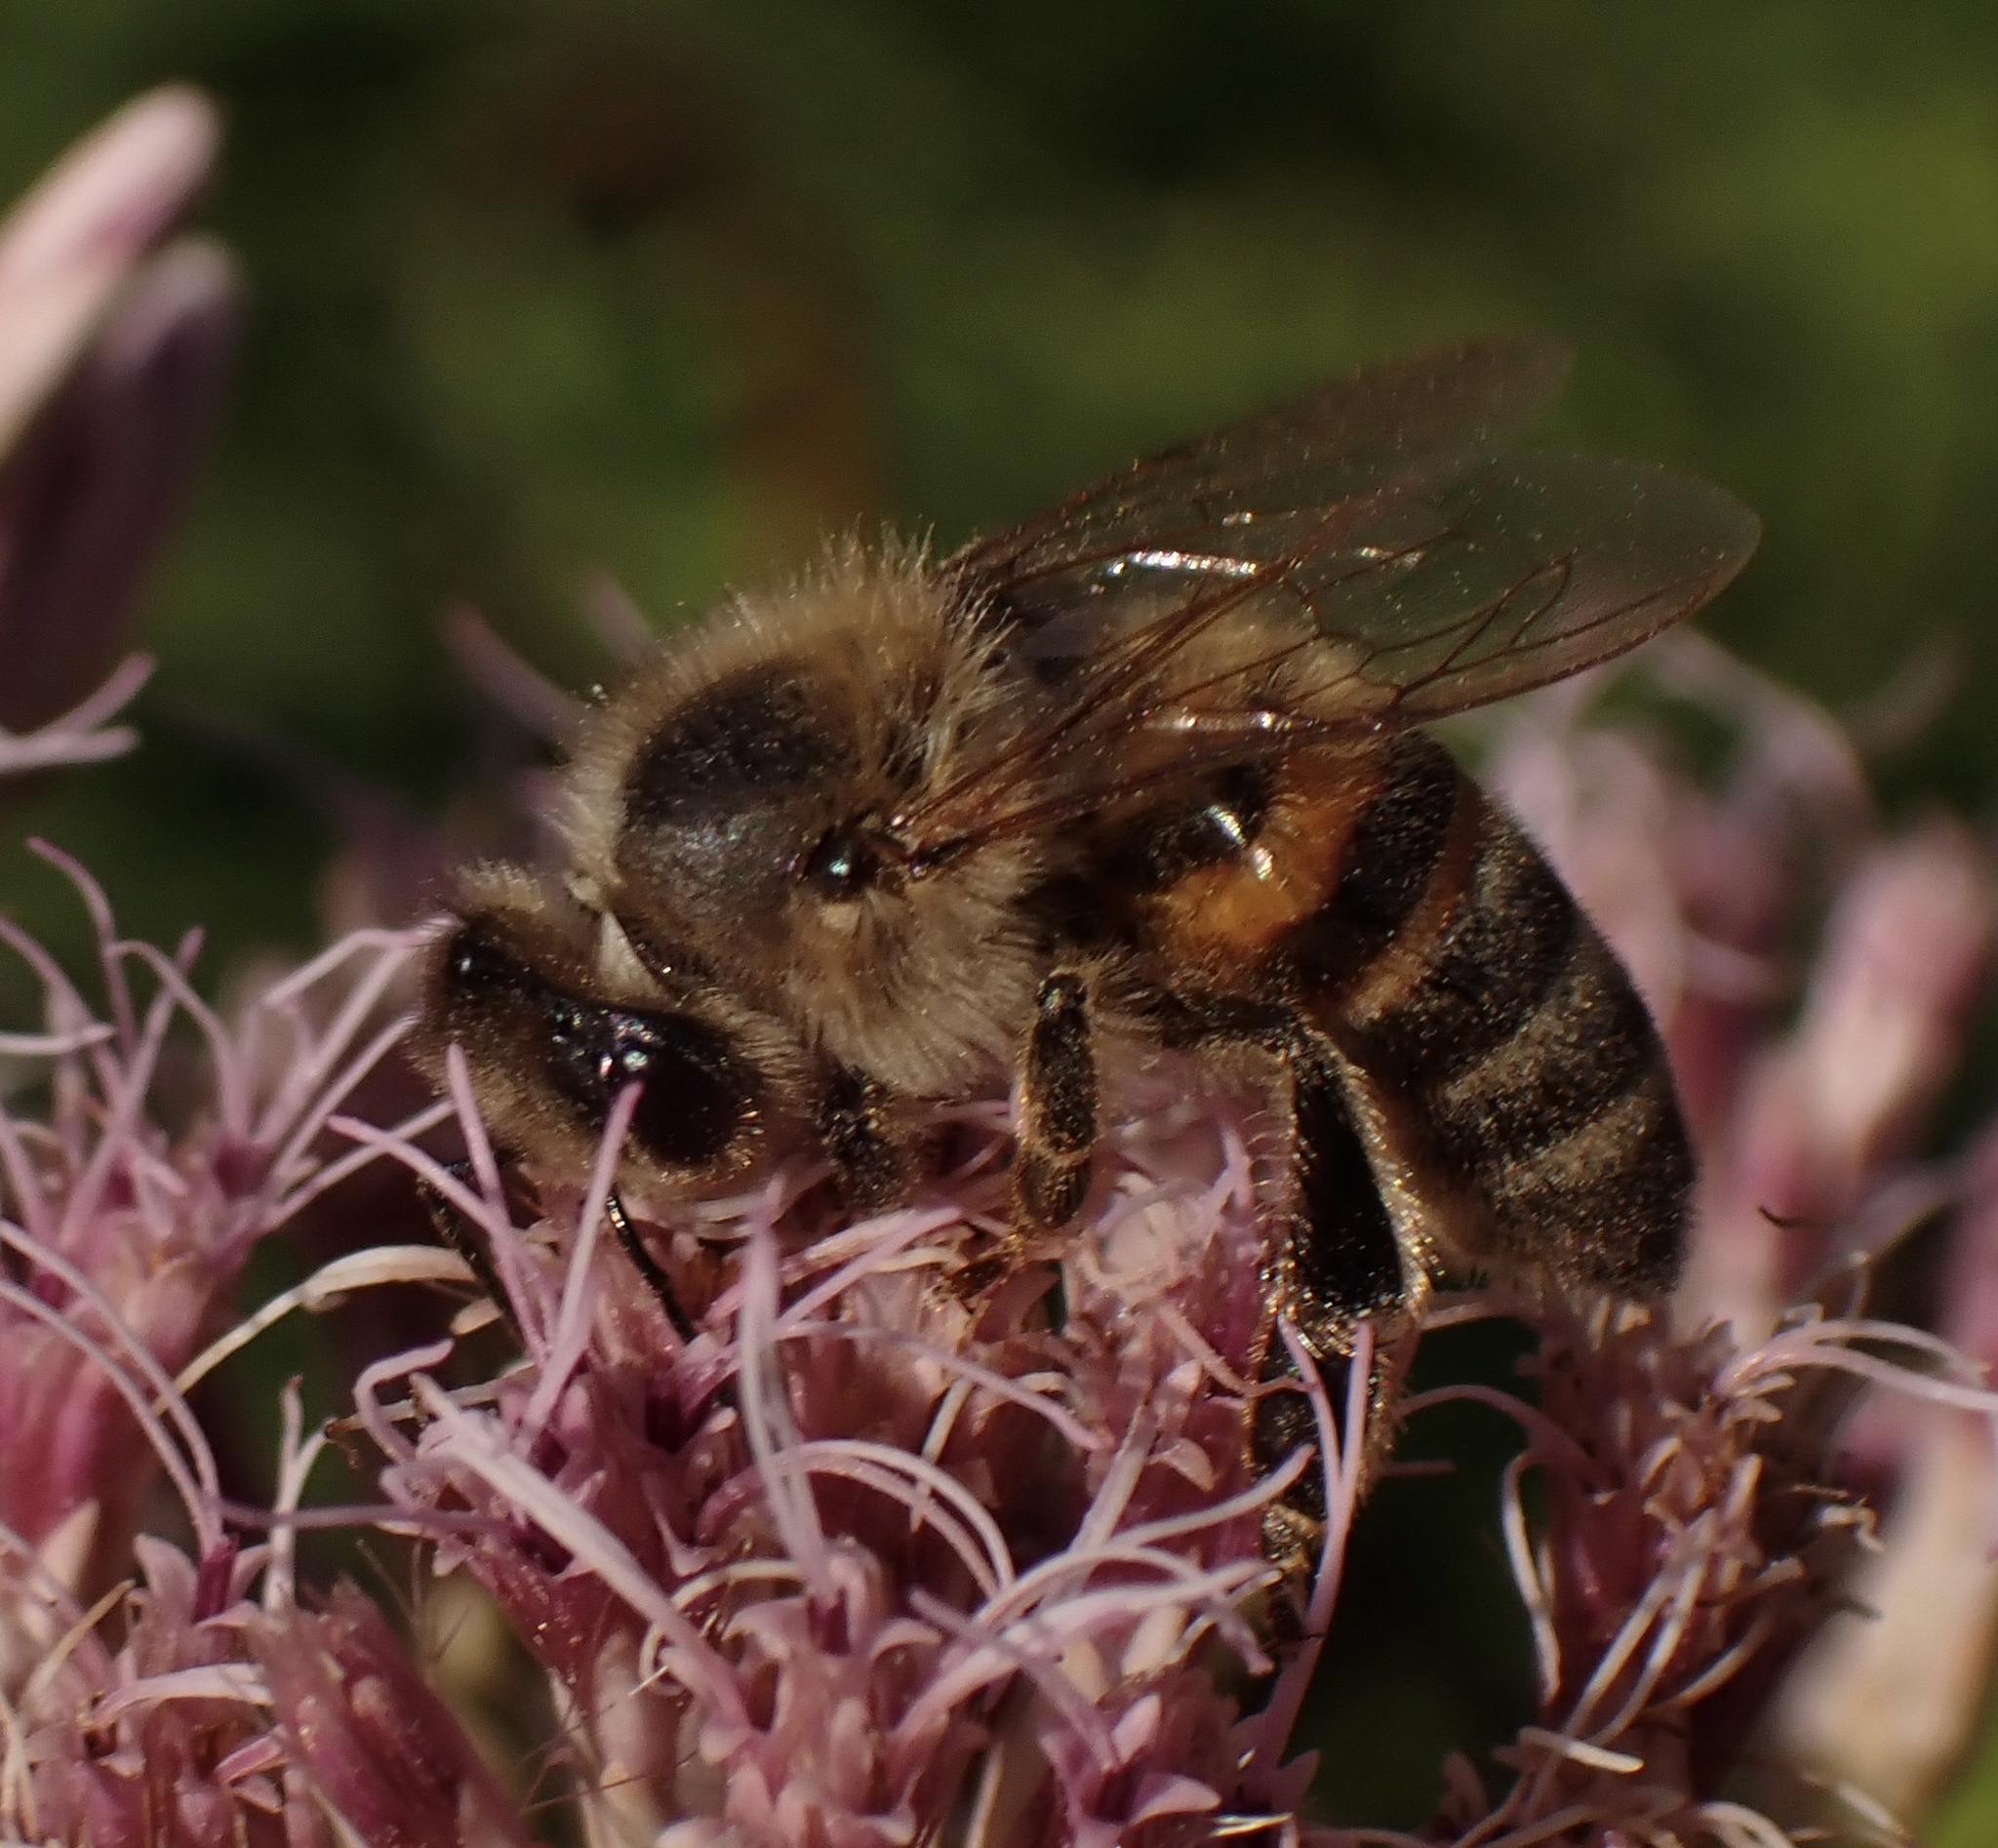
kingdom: Animalia
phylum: Arthropoda
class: Insecta
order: Hymenoptera
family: Apidae
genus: Apis
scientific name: Apis mellifera
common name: Honey bee
